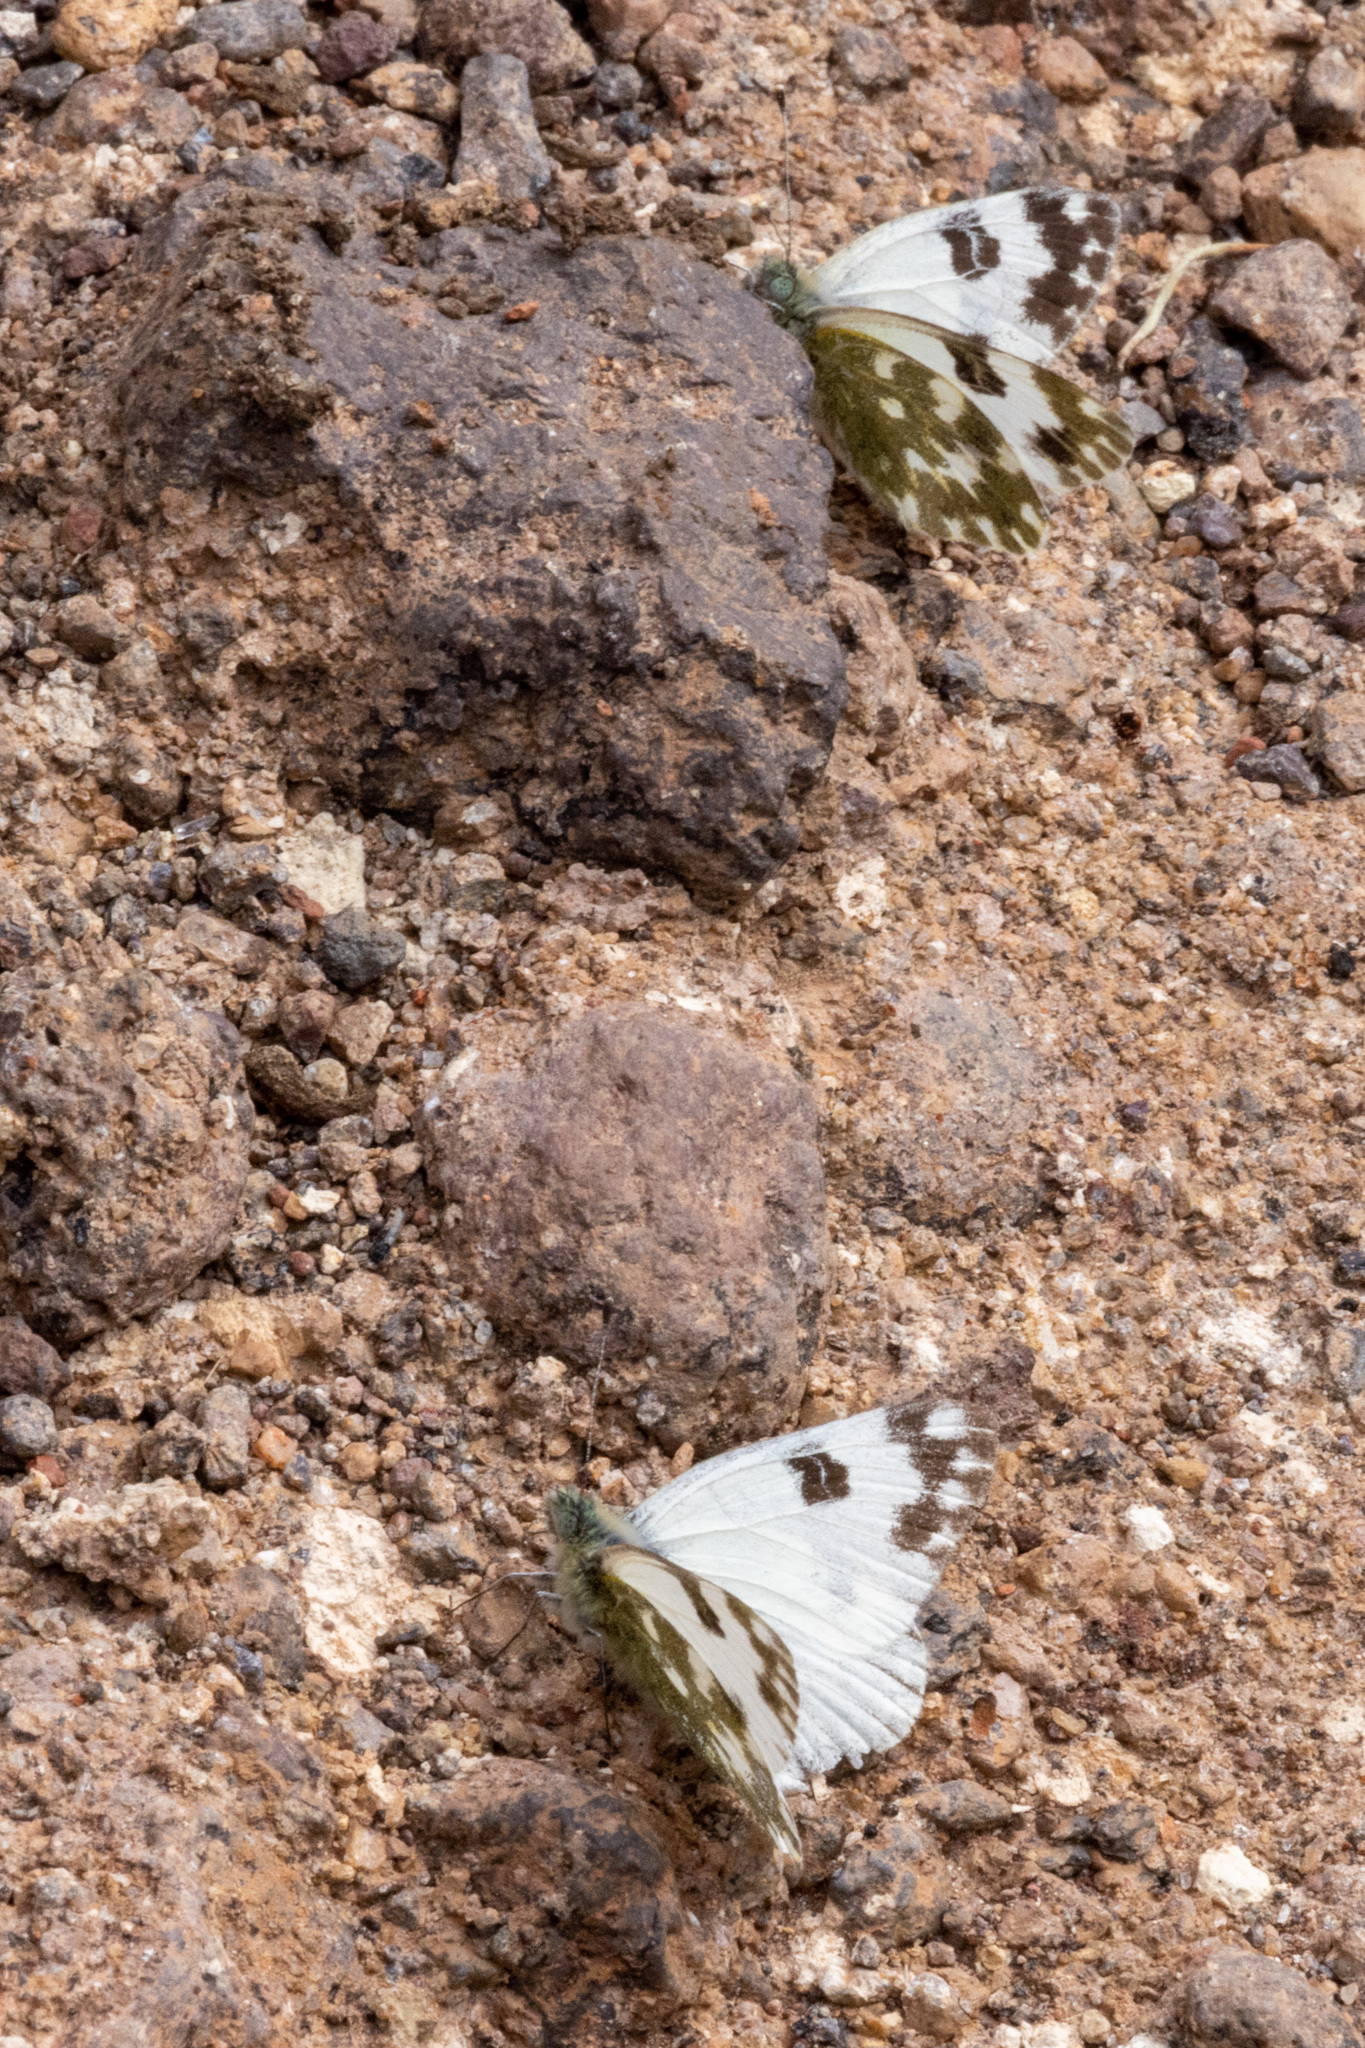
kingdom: Animalia
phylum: Arthropoda
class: Insecta
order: Lepidoptera
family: Pieridae
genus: Pontia
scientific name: Pontia daplidice
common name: Bath white
